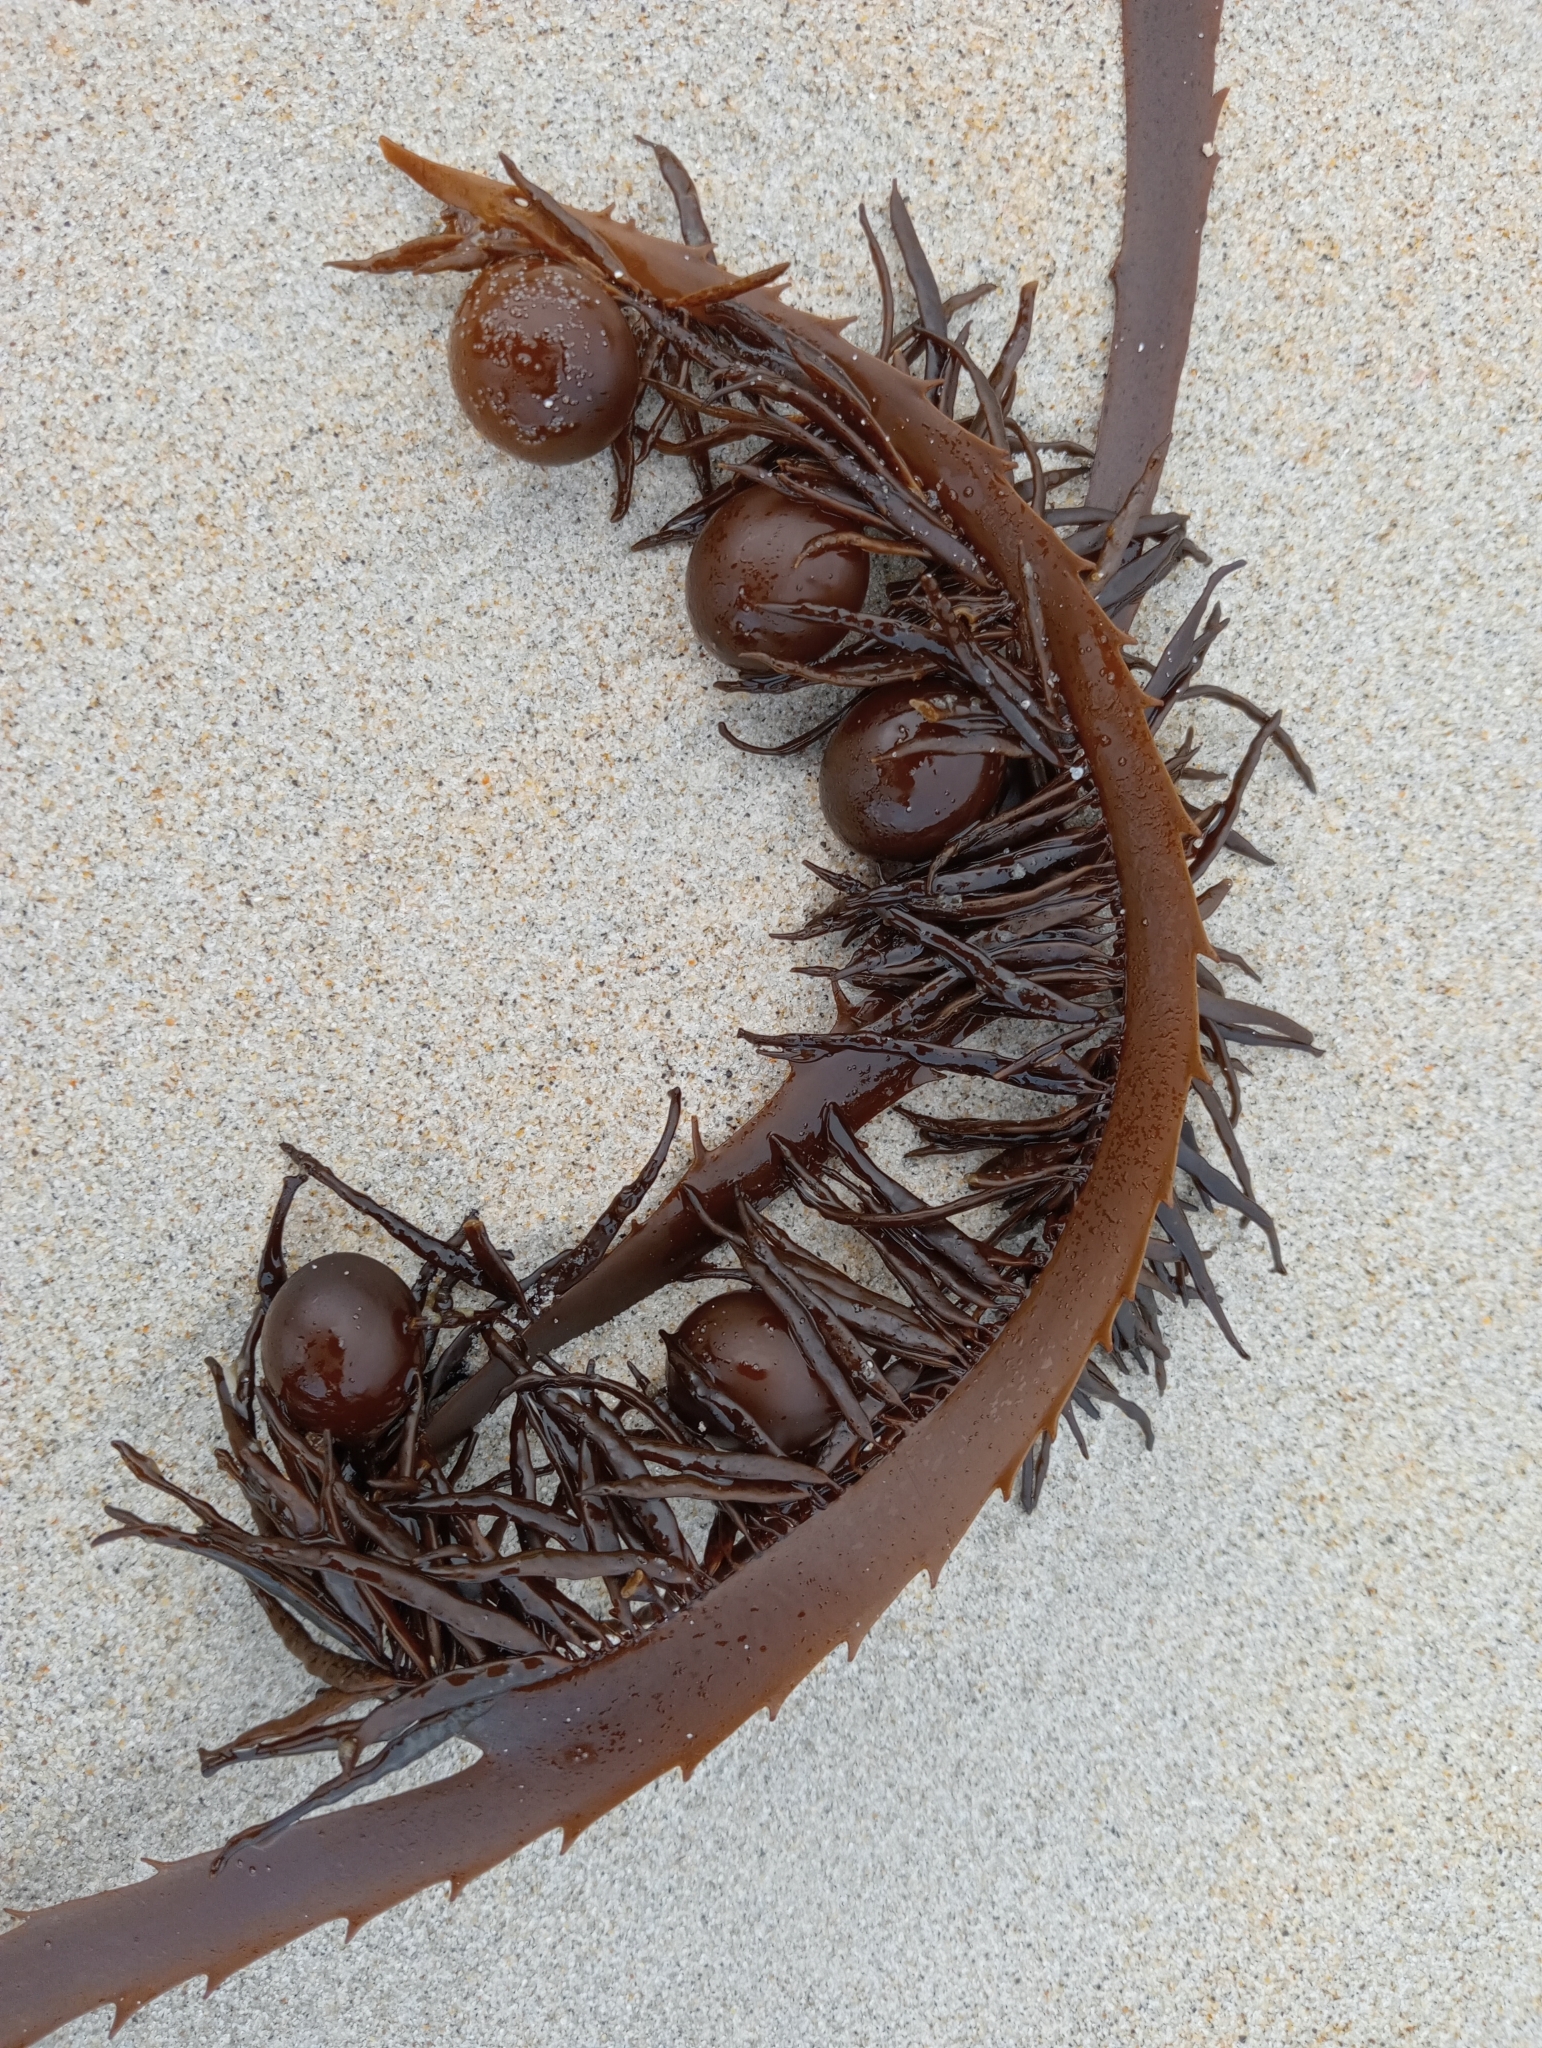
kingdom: Chromista
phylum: Ochrophyta
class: Phaeophyceae
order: Fucales
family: Seirococcaceae
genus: Marginariella
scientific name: Marginariella urvilliana
